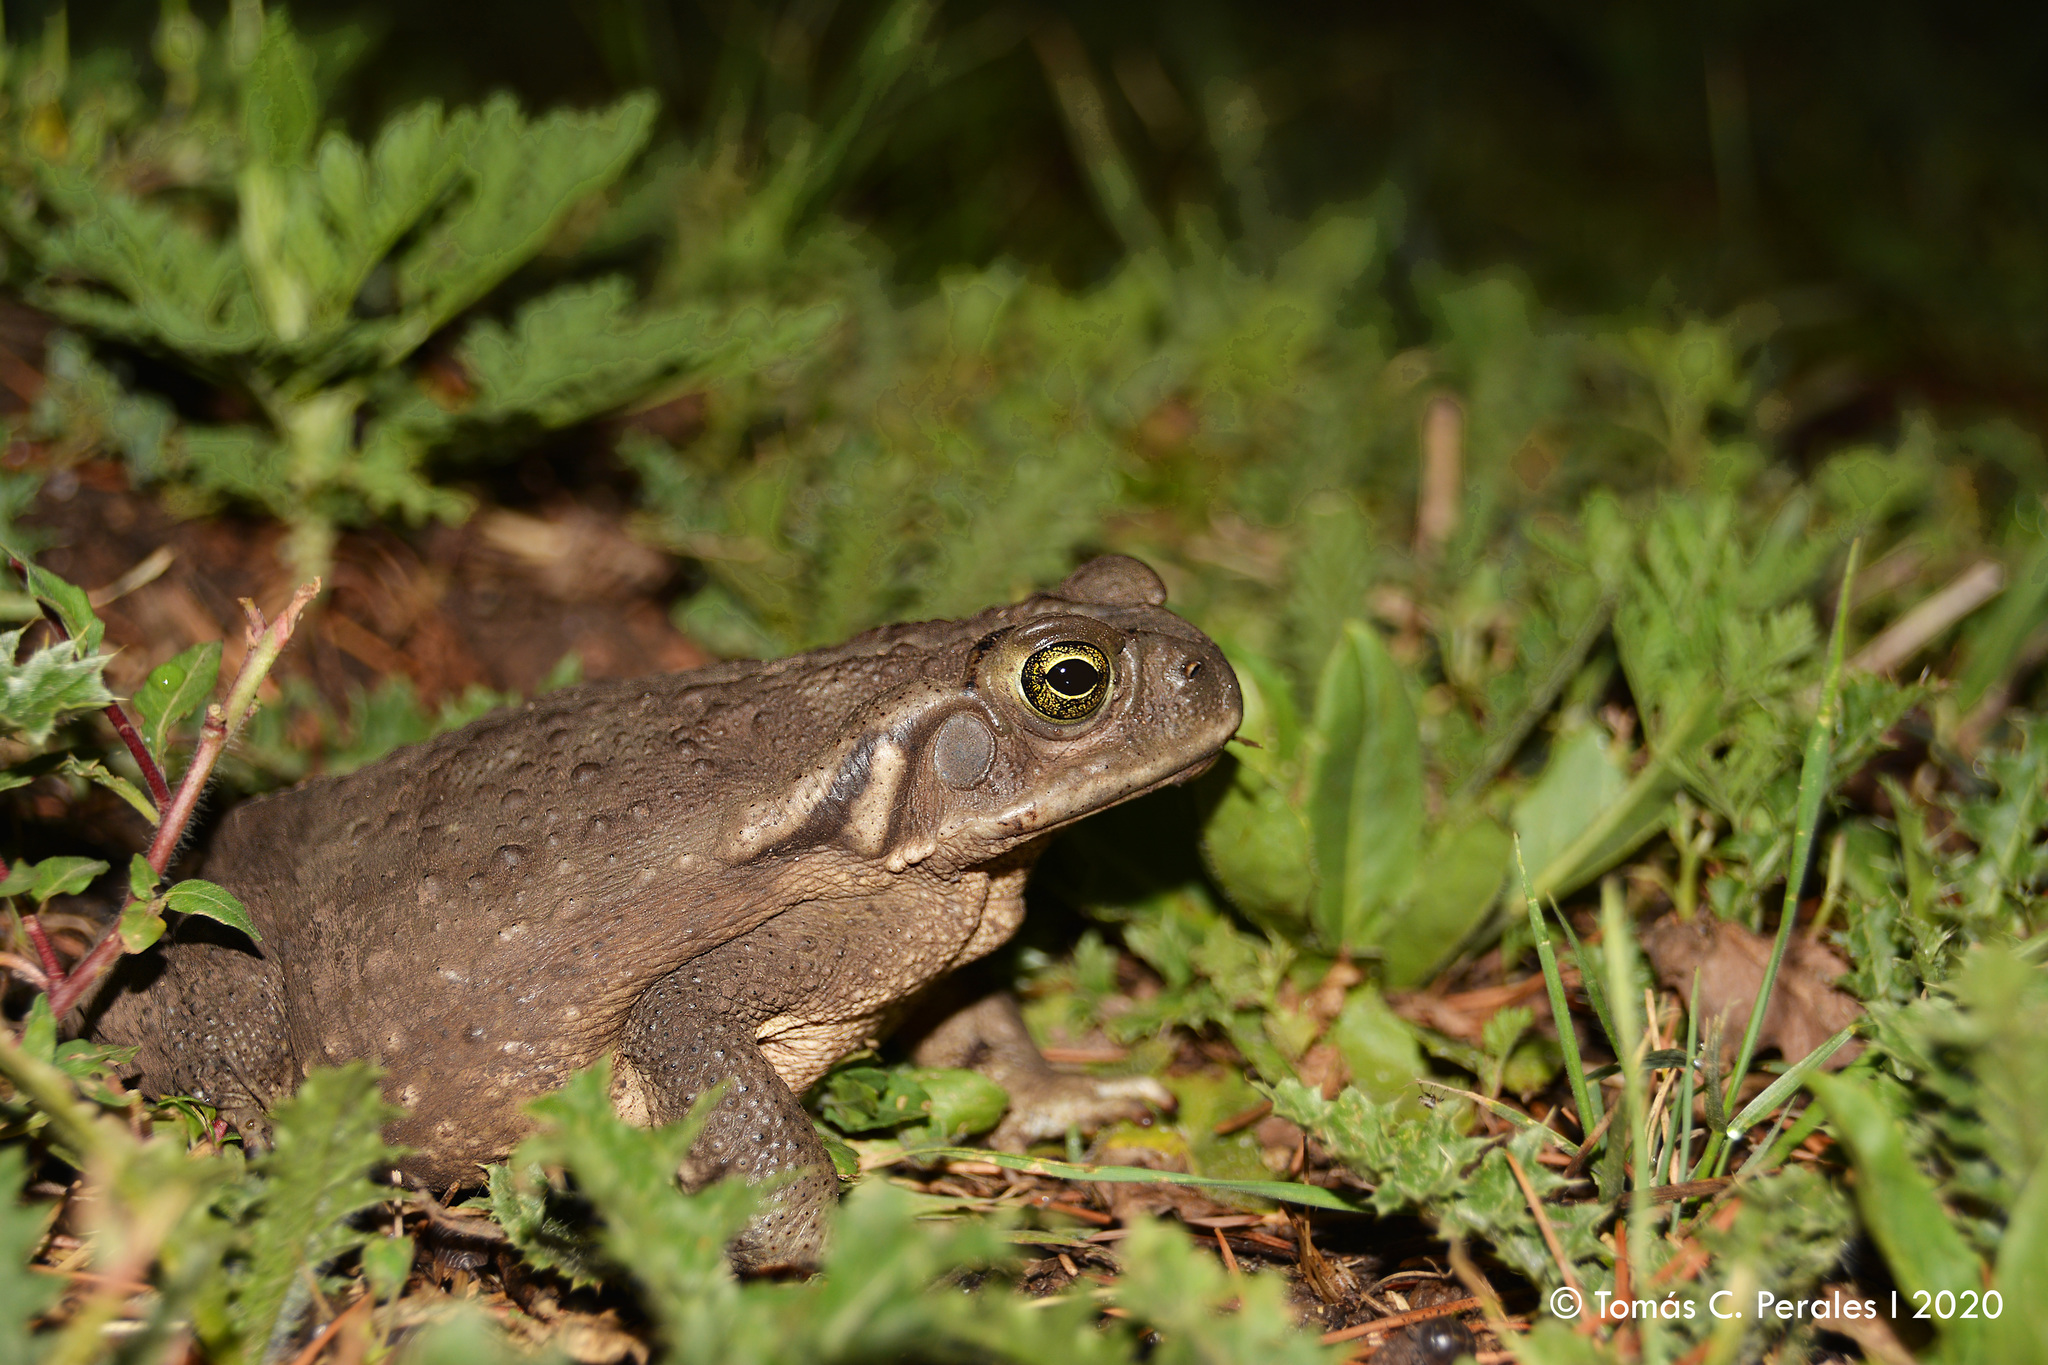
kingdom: Animalia
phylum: Chordata
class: Amphibia
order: Anura
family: Bufonidae
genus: Rhinella
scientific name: Rhinella arenarum
